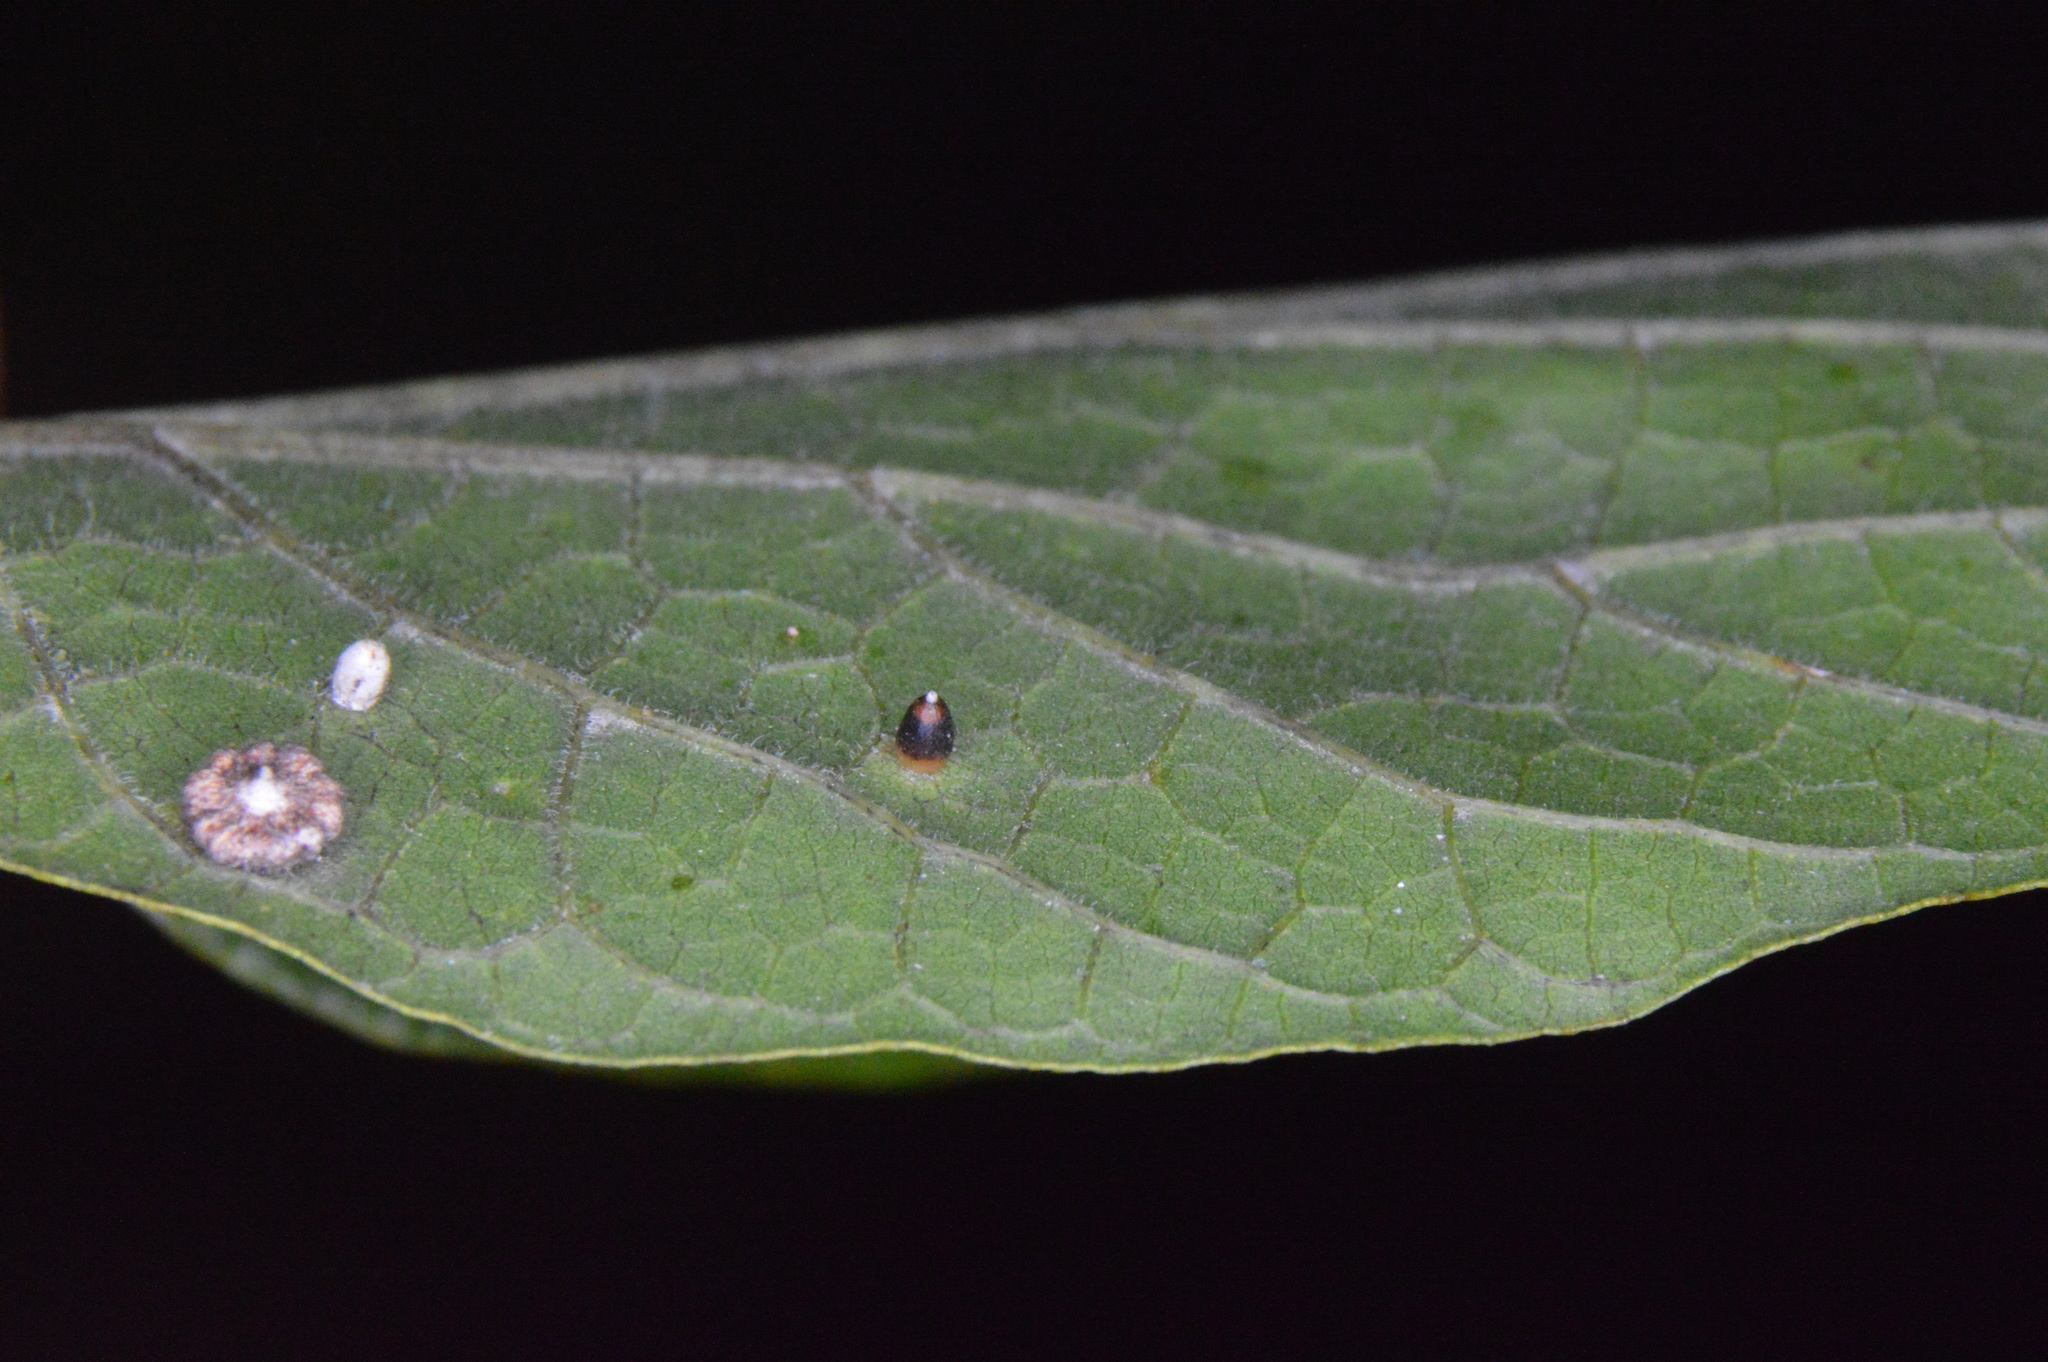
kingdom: Animalia
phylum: Arthropoda
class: Insecta
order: Diptera
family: Cecidomyiidae
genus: Celticecis
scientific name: Celticecis cupiformis
